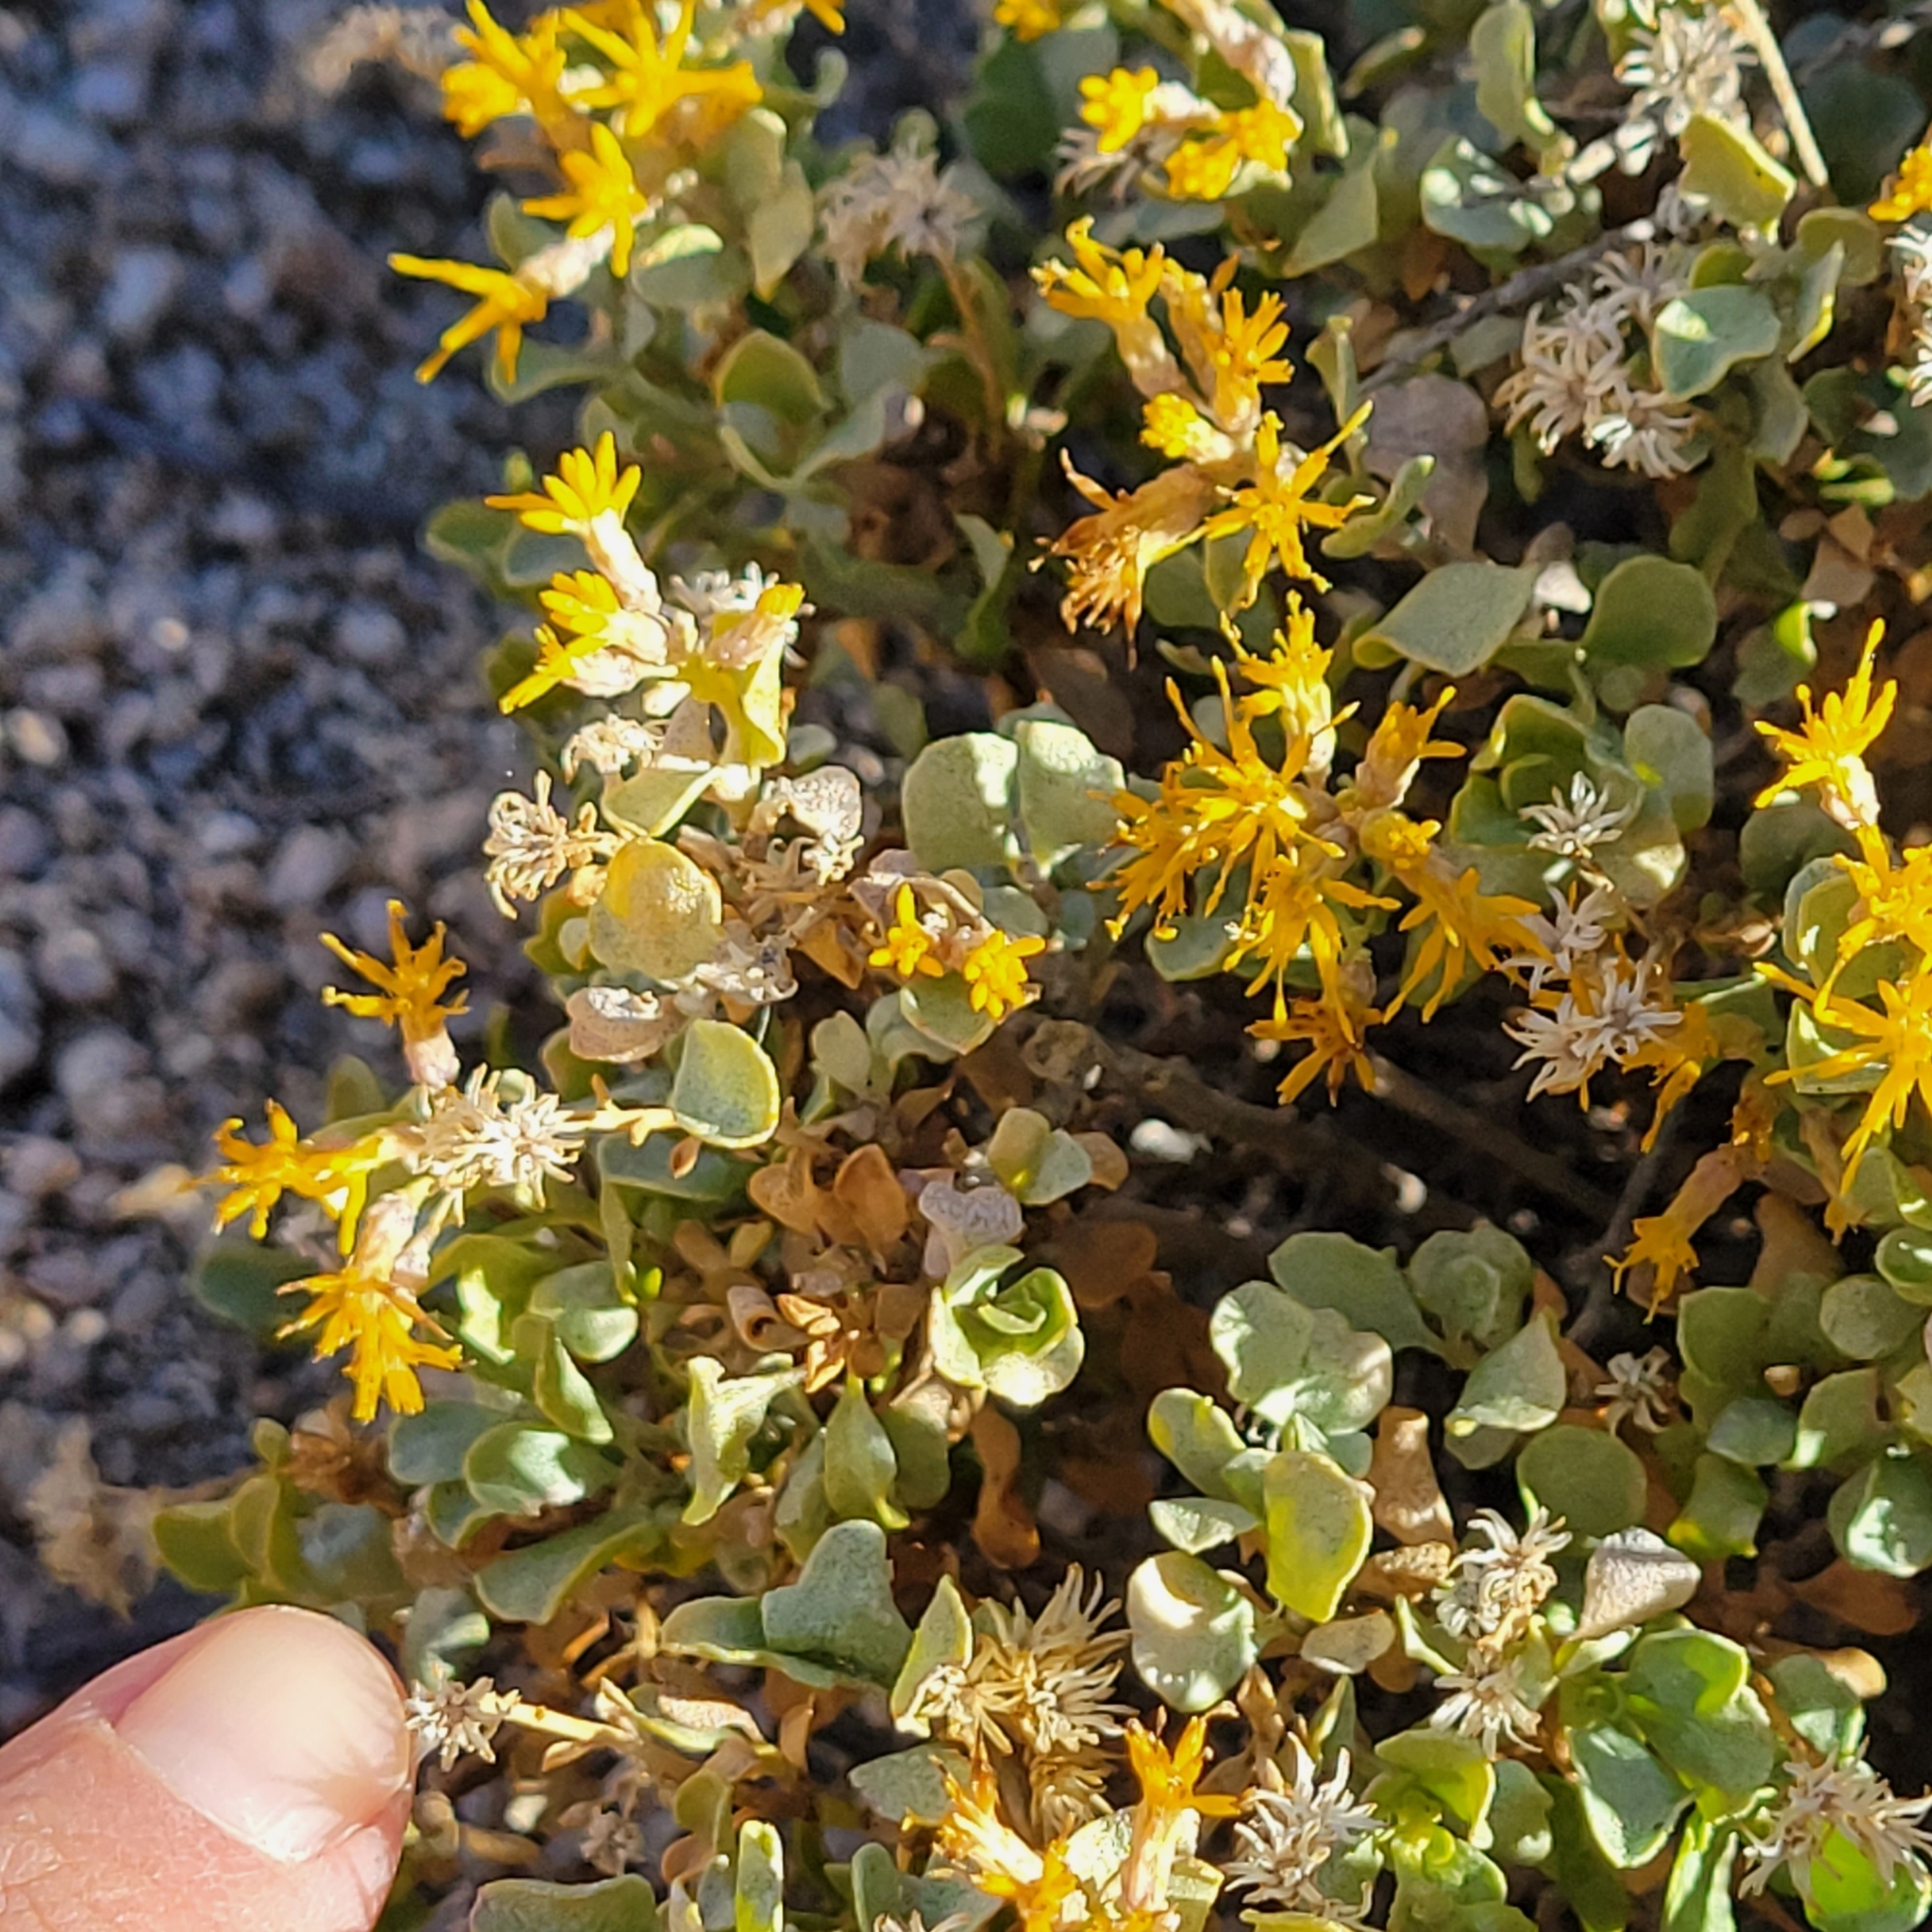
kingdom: Plantae
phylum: Tracheophyta
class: Magnoliopsida
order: Asterales
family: Asteraceae
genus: Ericameria
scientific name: Ericameria cuneata
